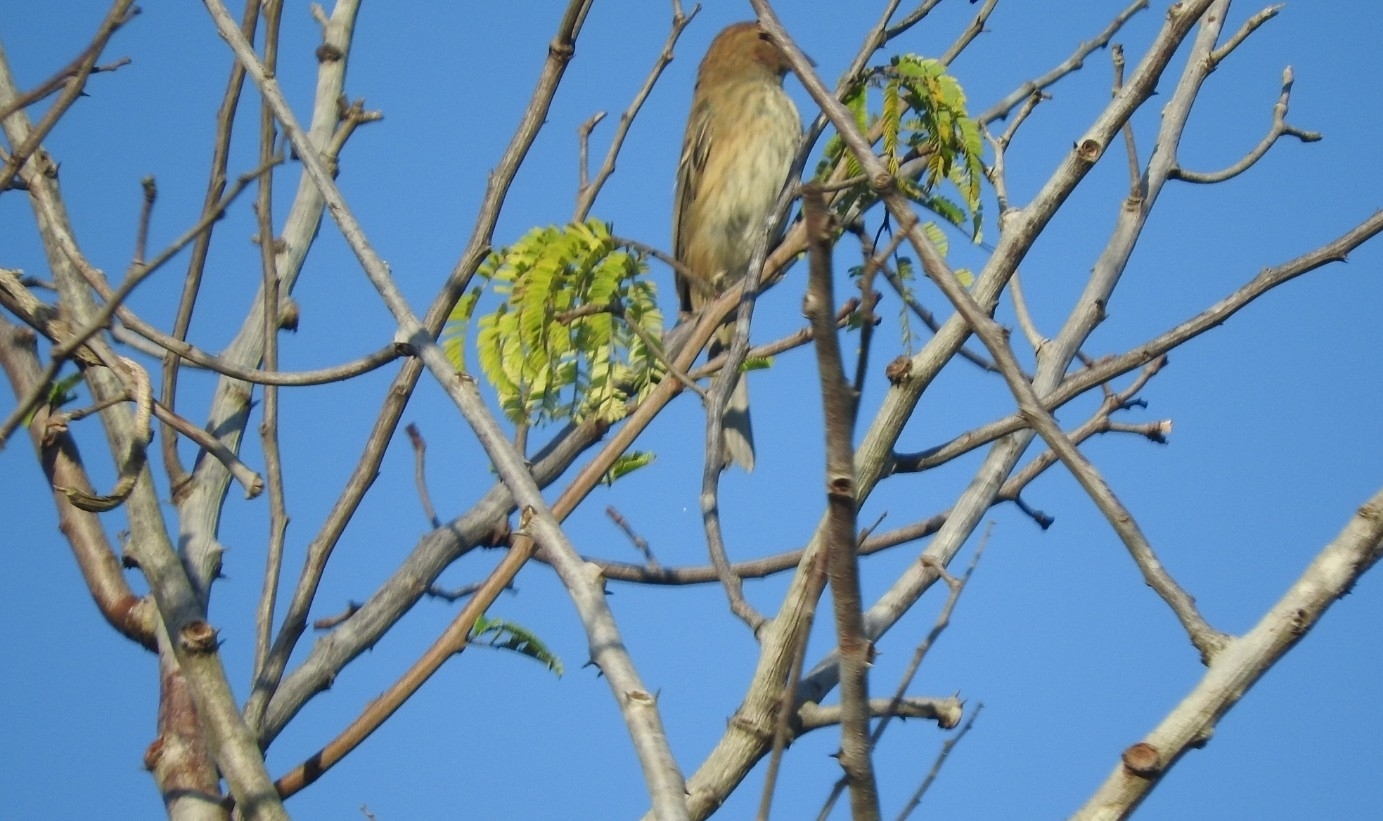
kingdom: Animalia
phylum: Chordata
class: Aves
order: Passeriformes
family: Cardinalidae
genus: Passerina
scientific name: Passerina cyanea
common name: Indigo bunting
